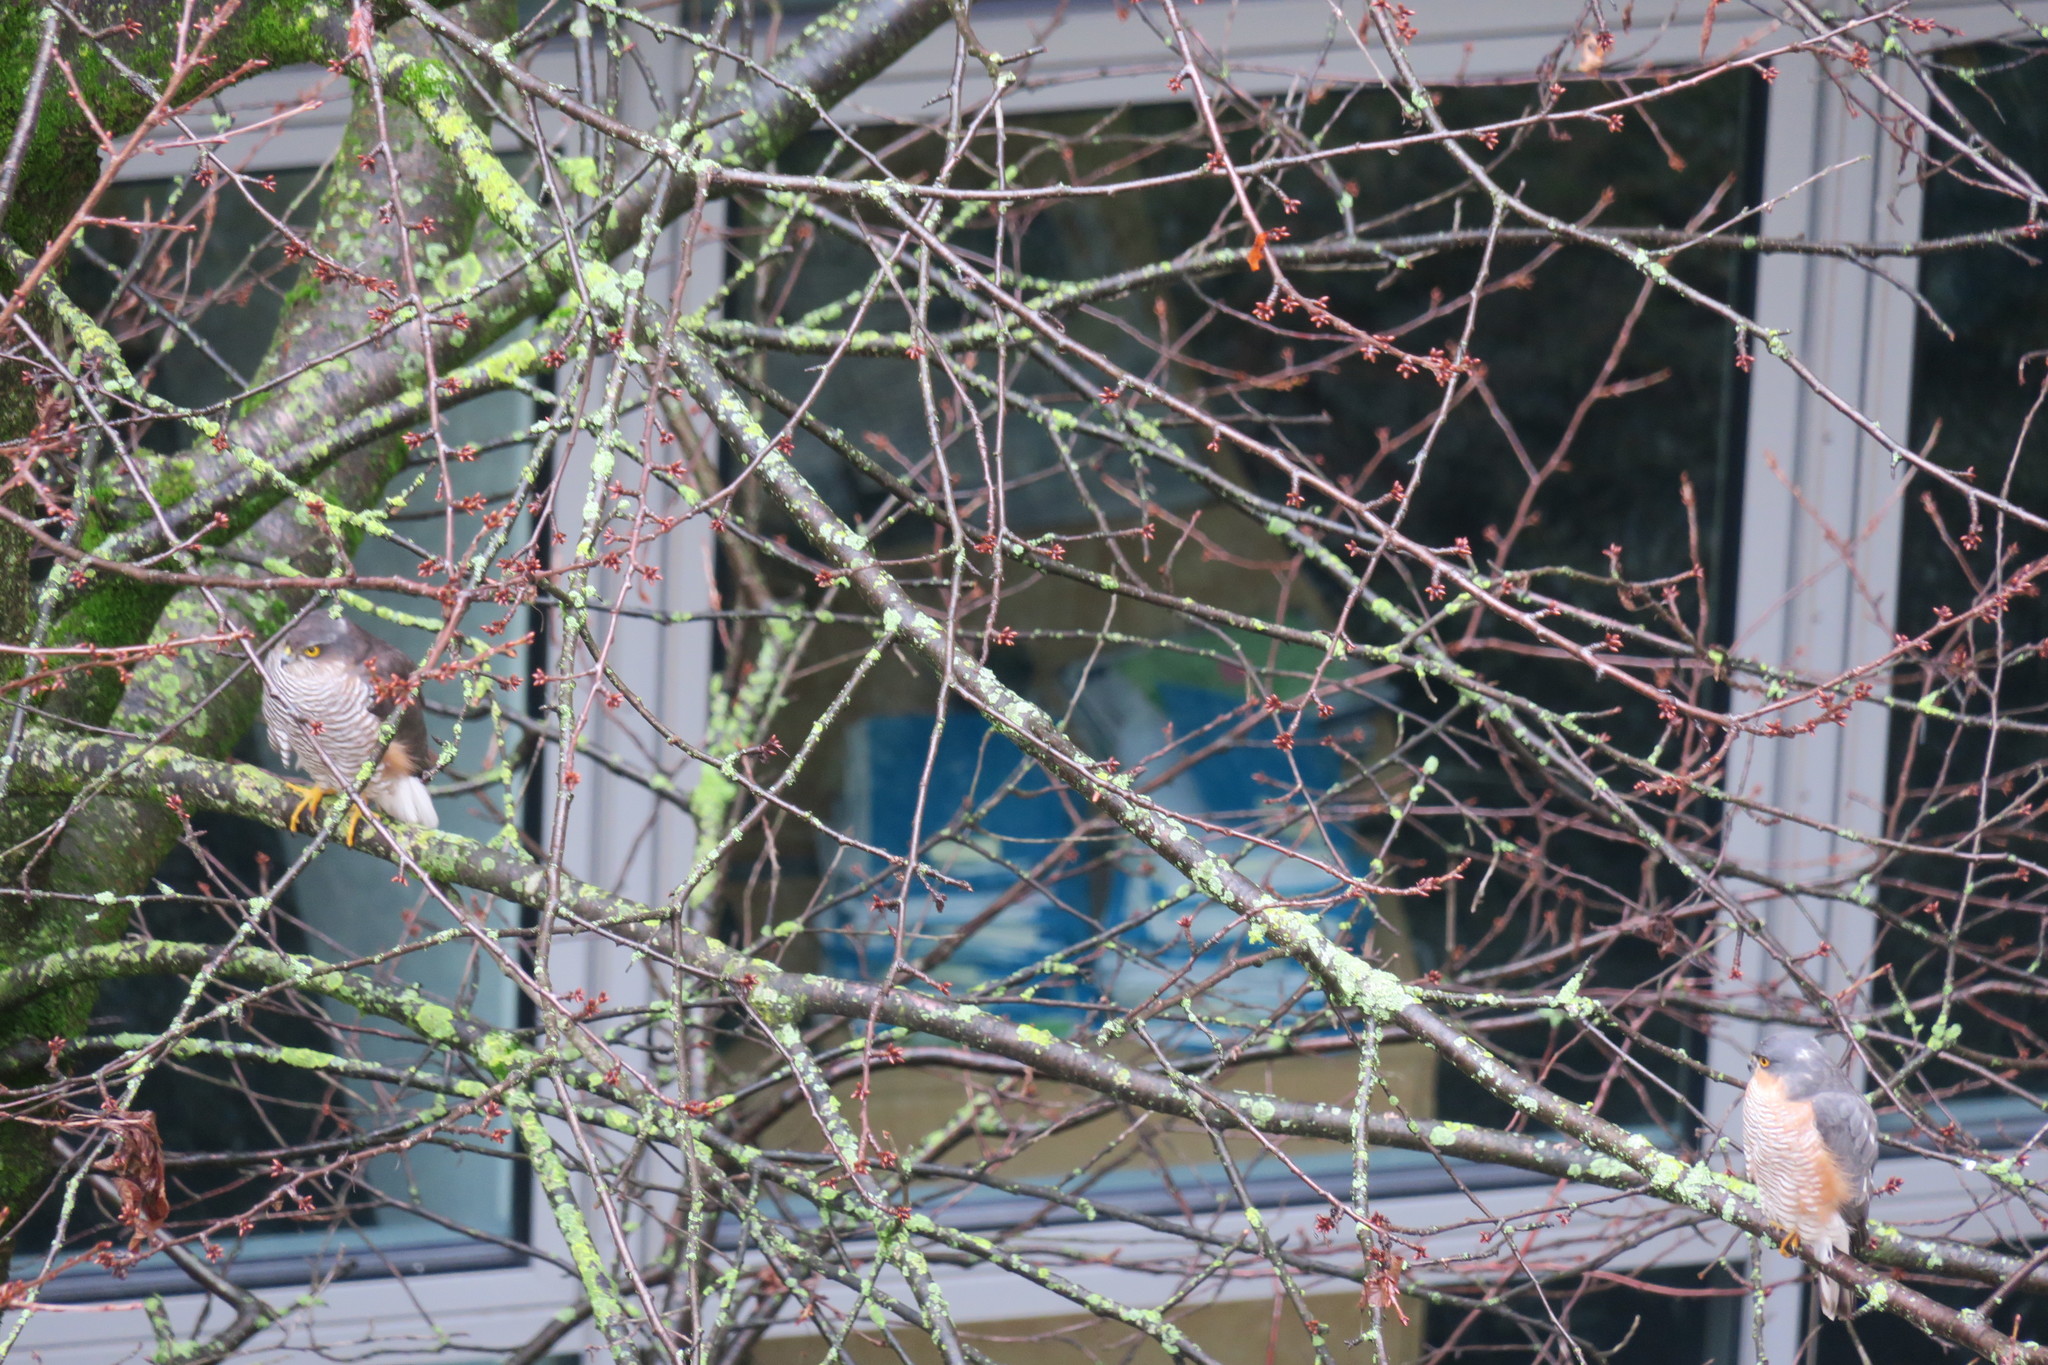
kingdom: Animalia
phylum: Chordata
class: Aves
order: Accipitriformes
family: Accipitridae
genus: Accipiter
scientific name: Accipiter nisus
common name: Eurasian sparrowhawk
